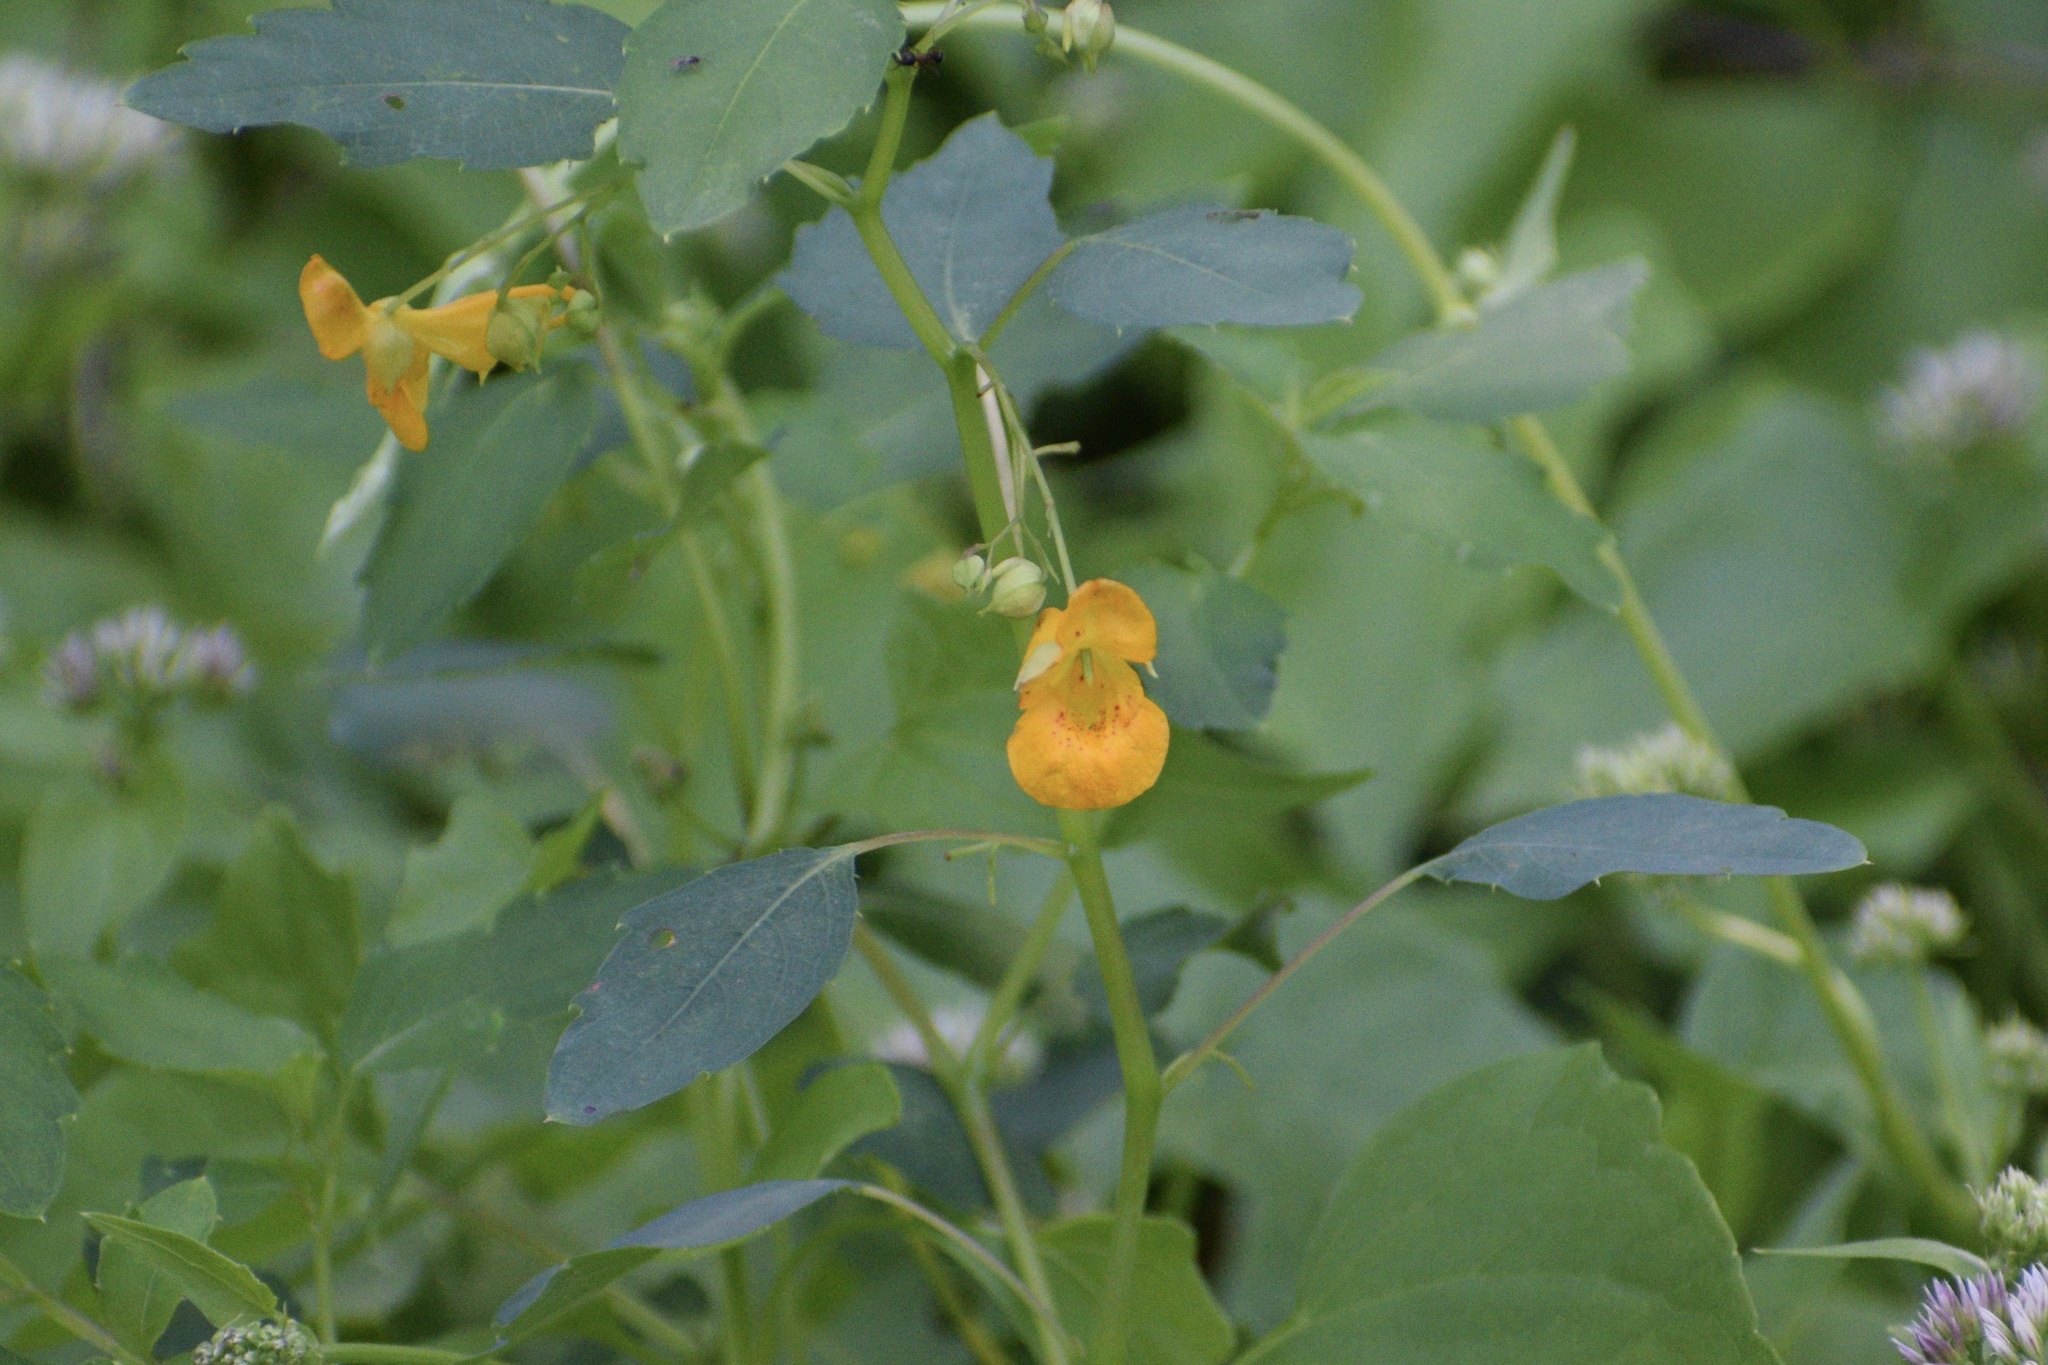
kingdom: Plantae
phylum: Tracheophyta
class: Magnoliopsida
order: Ericales
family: Balsaminaceae
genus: Impatiens
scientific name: Impatiens capensis
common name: Orange balsam
